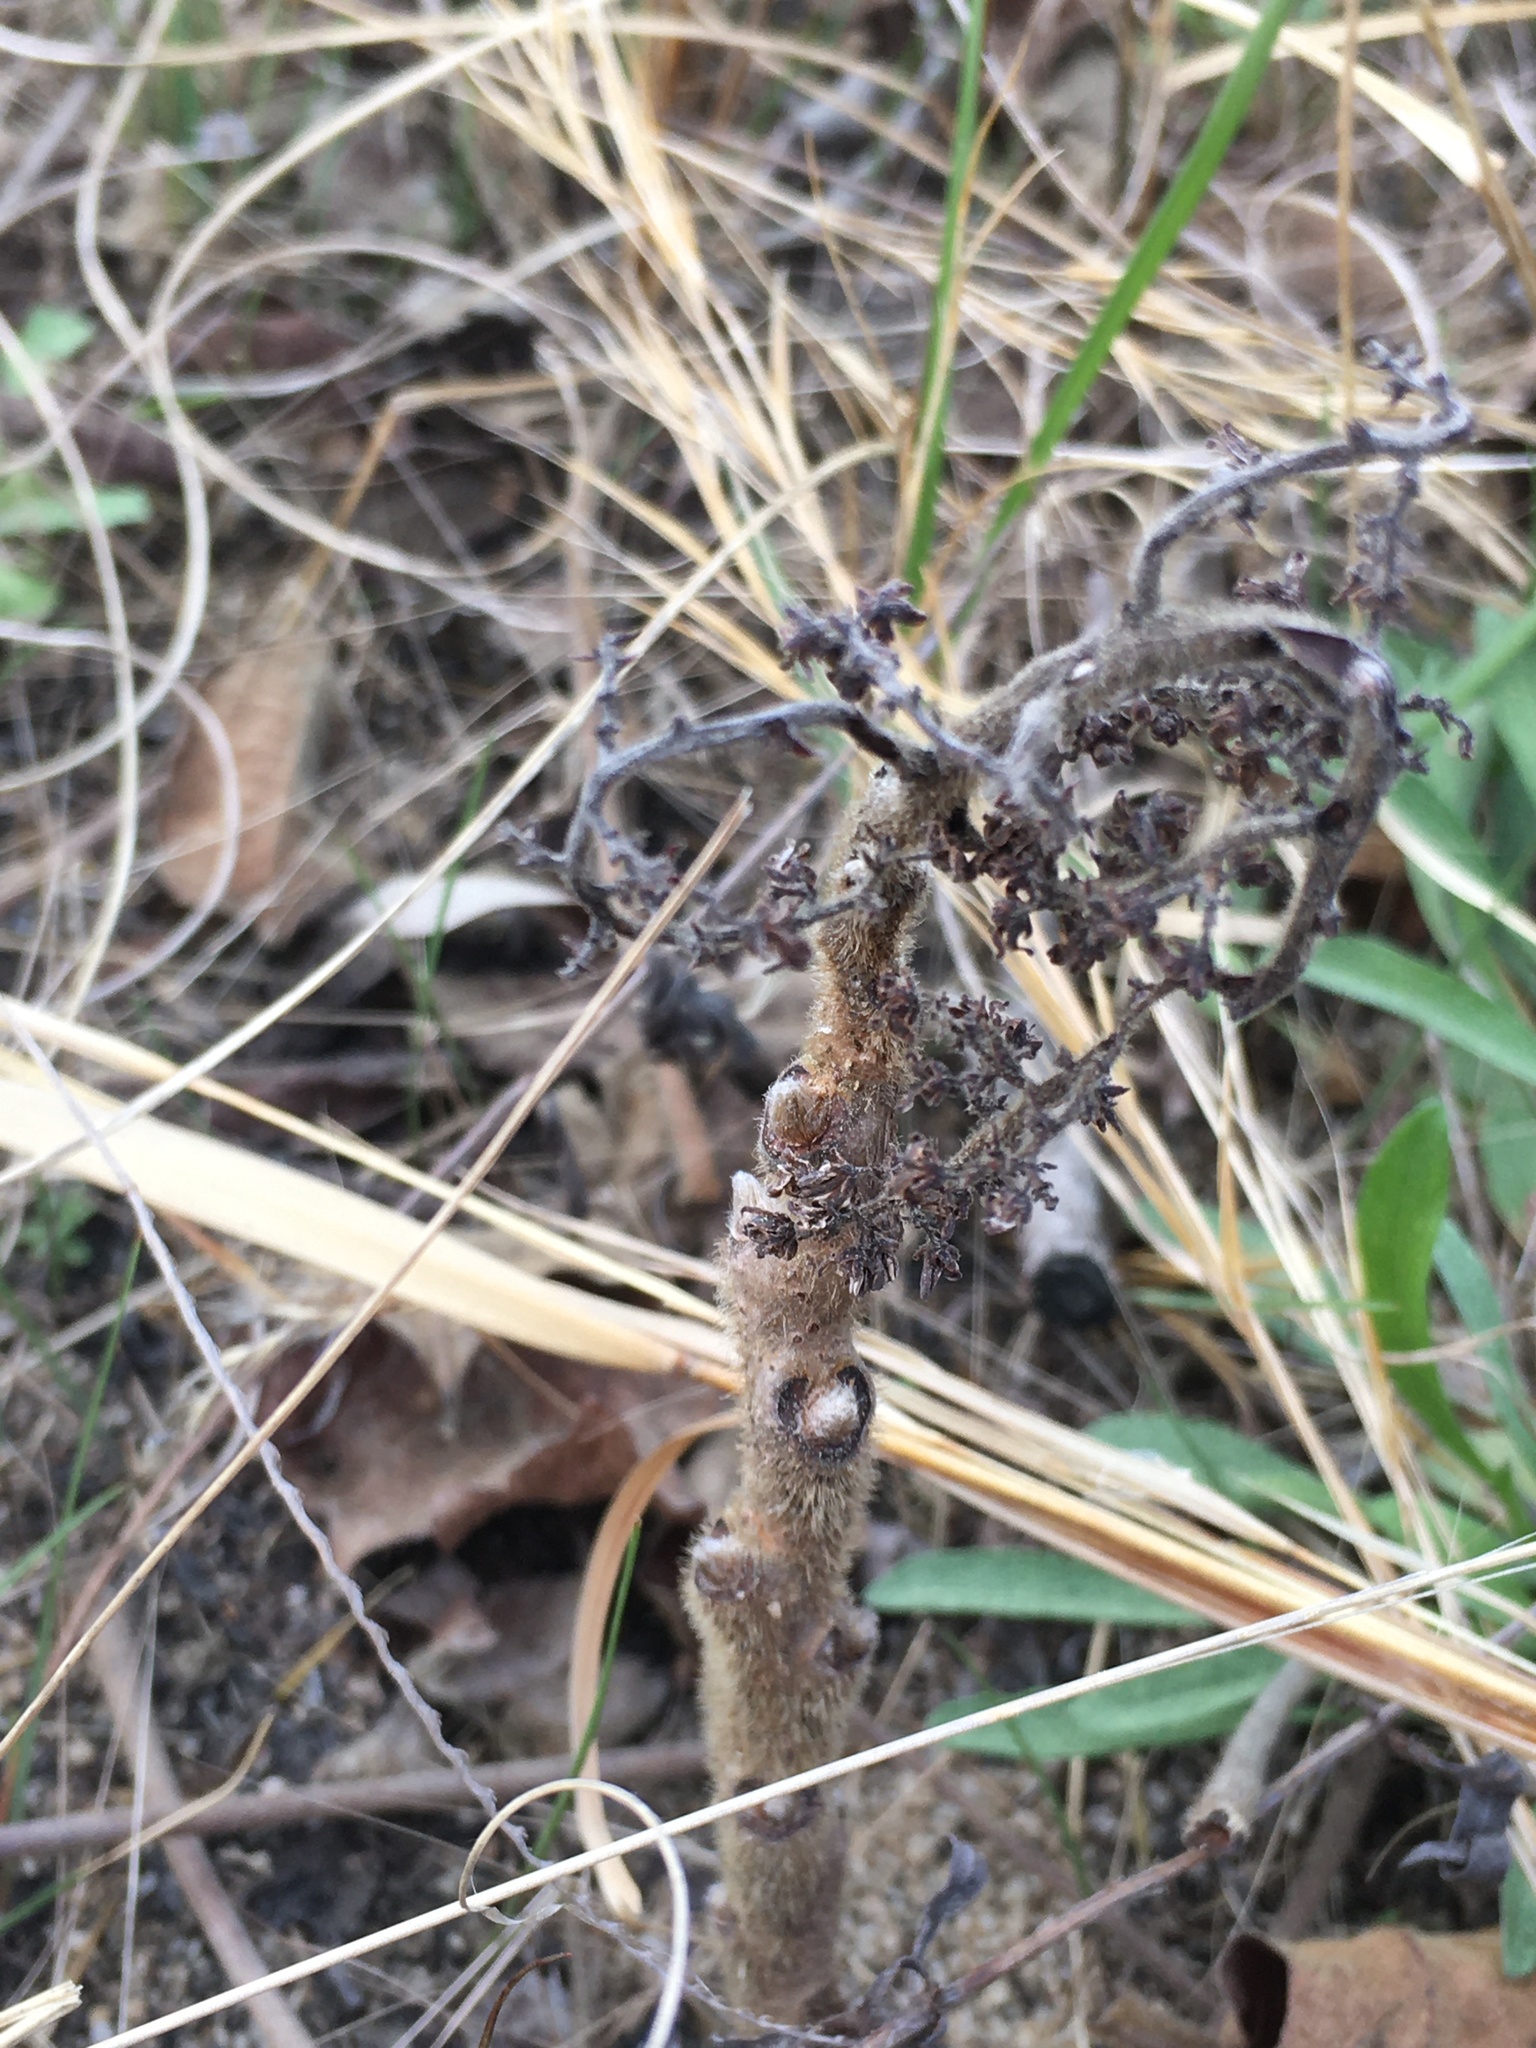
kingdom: Plantae
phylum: Tracheophyta
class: Magnoliopsida
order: Sapindales
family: Anacardiaceae
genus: Rhus
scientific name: Rhus michauxii
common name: Michaux's sumac
